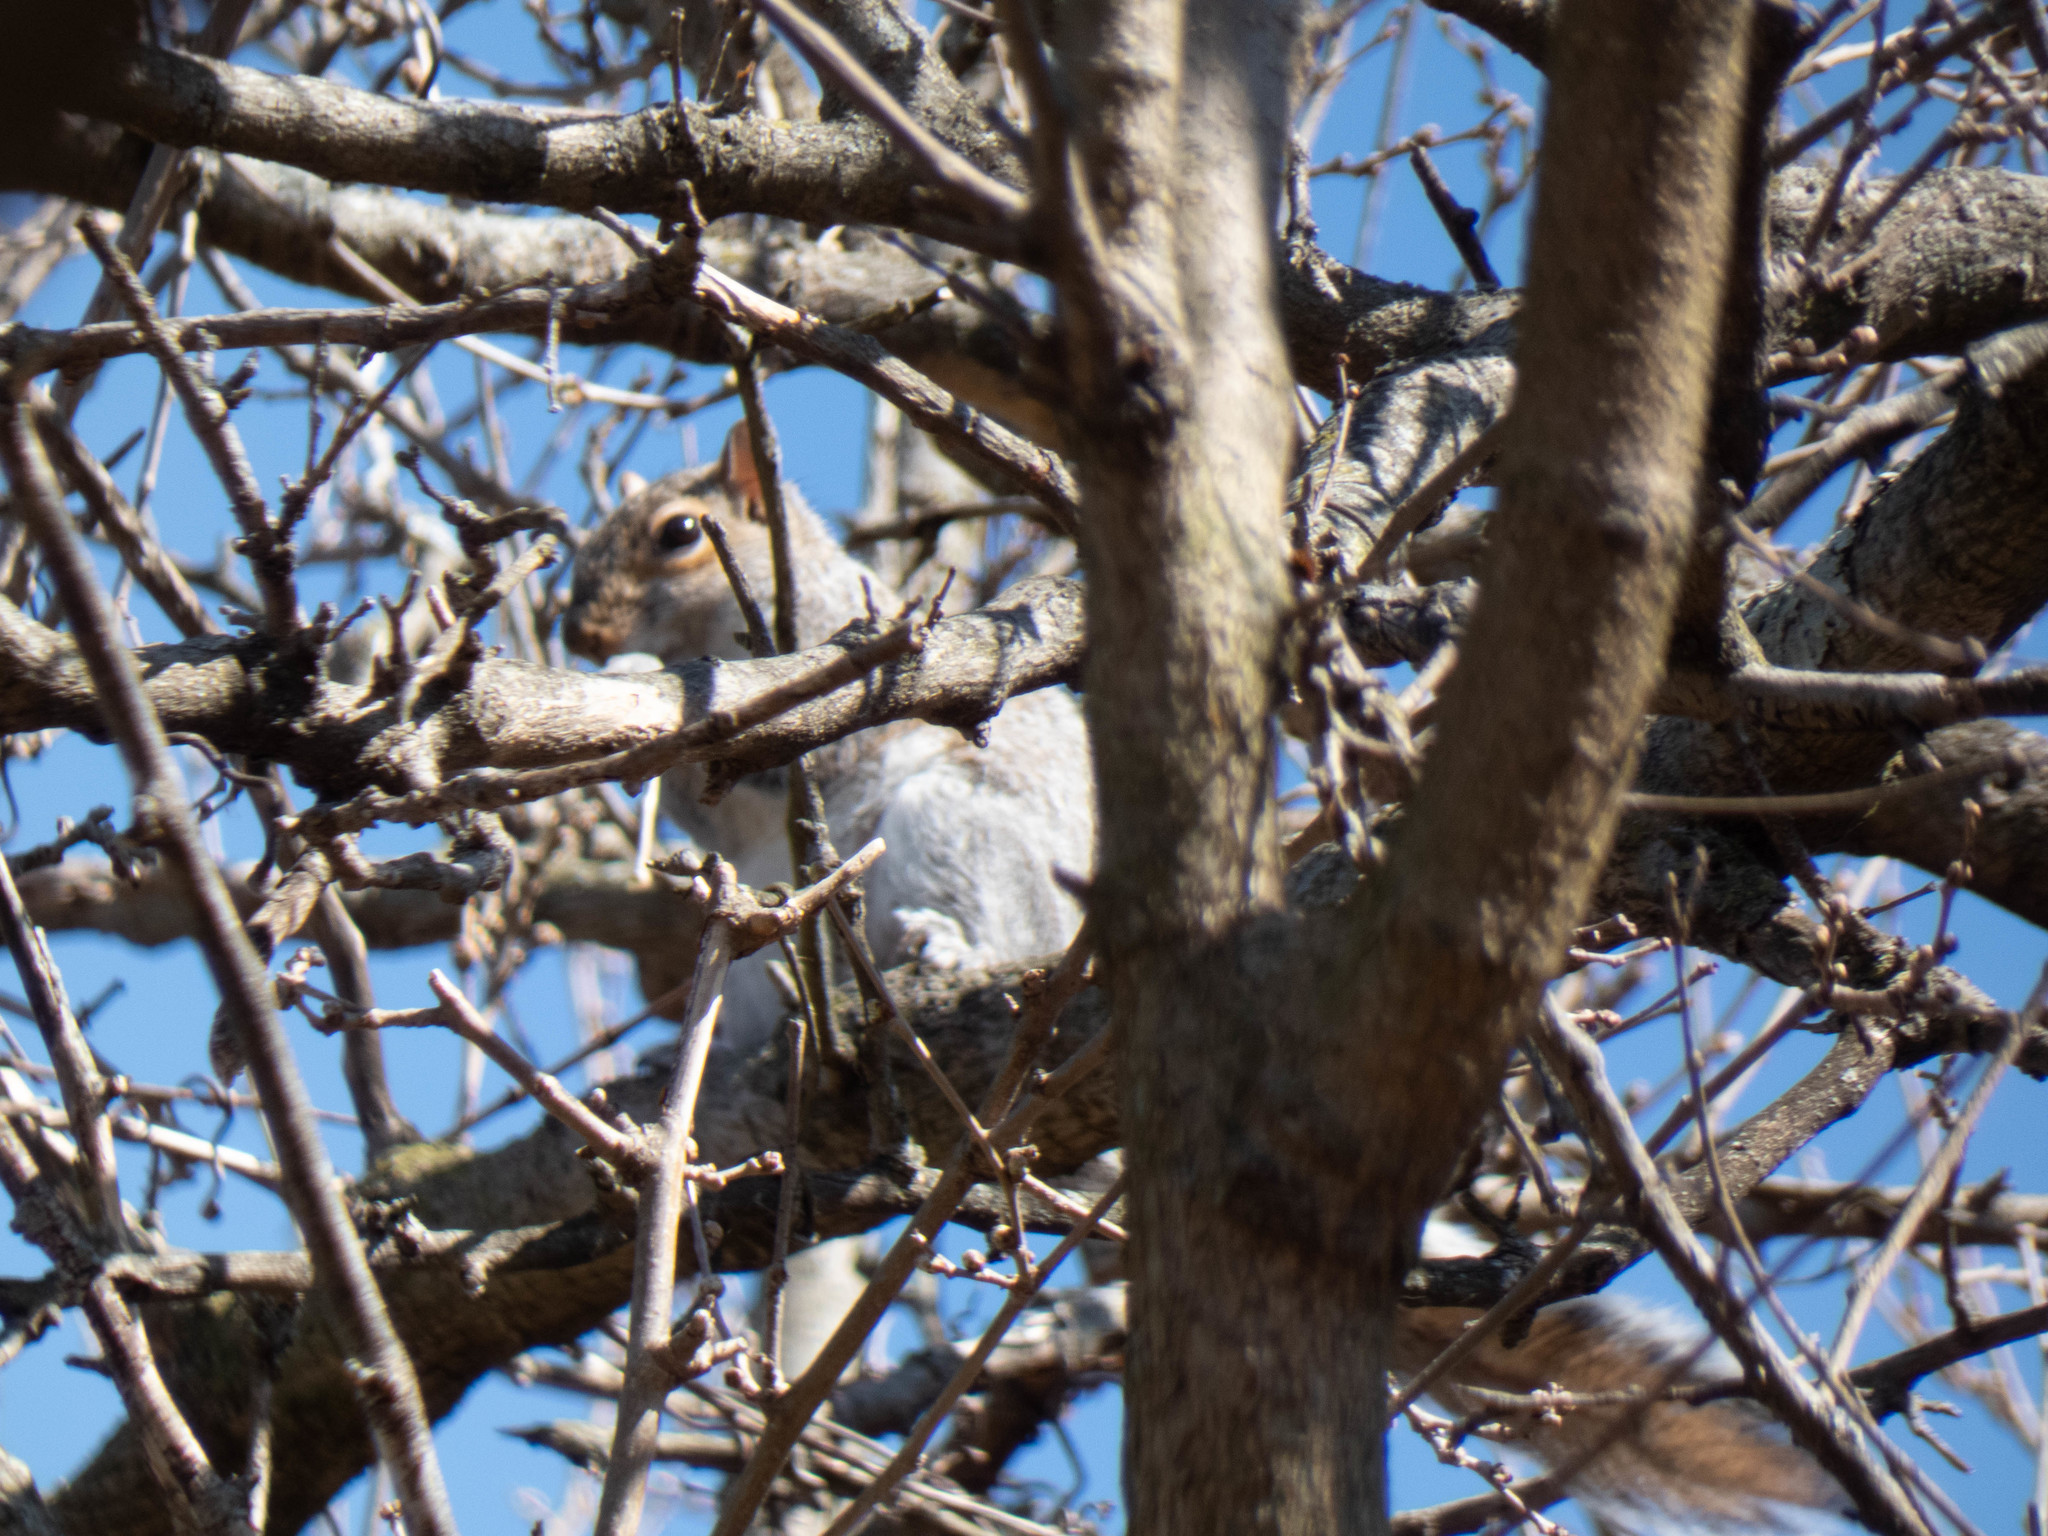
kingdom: Animalia
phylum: Chordata
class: Mammalia
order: Rodentia
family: Sciuridae
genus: Sciurus
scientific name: Sciurus carolinensis
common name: Eastern gray squirrel
